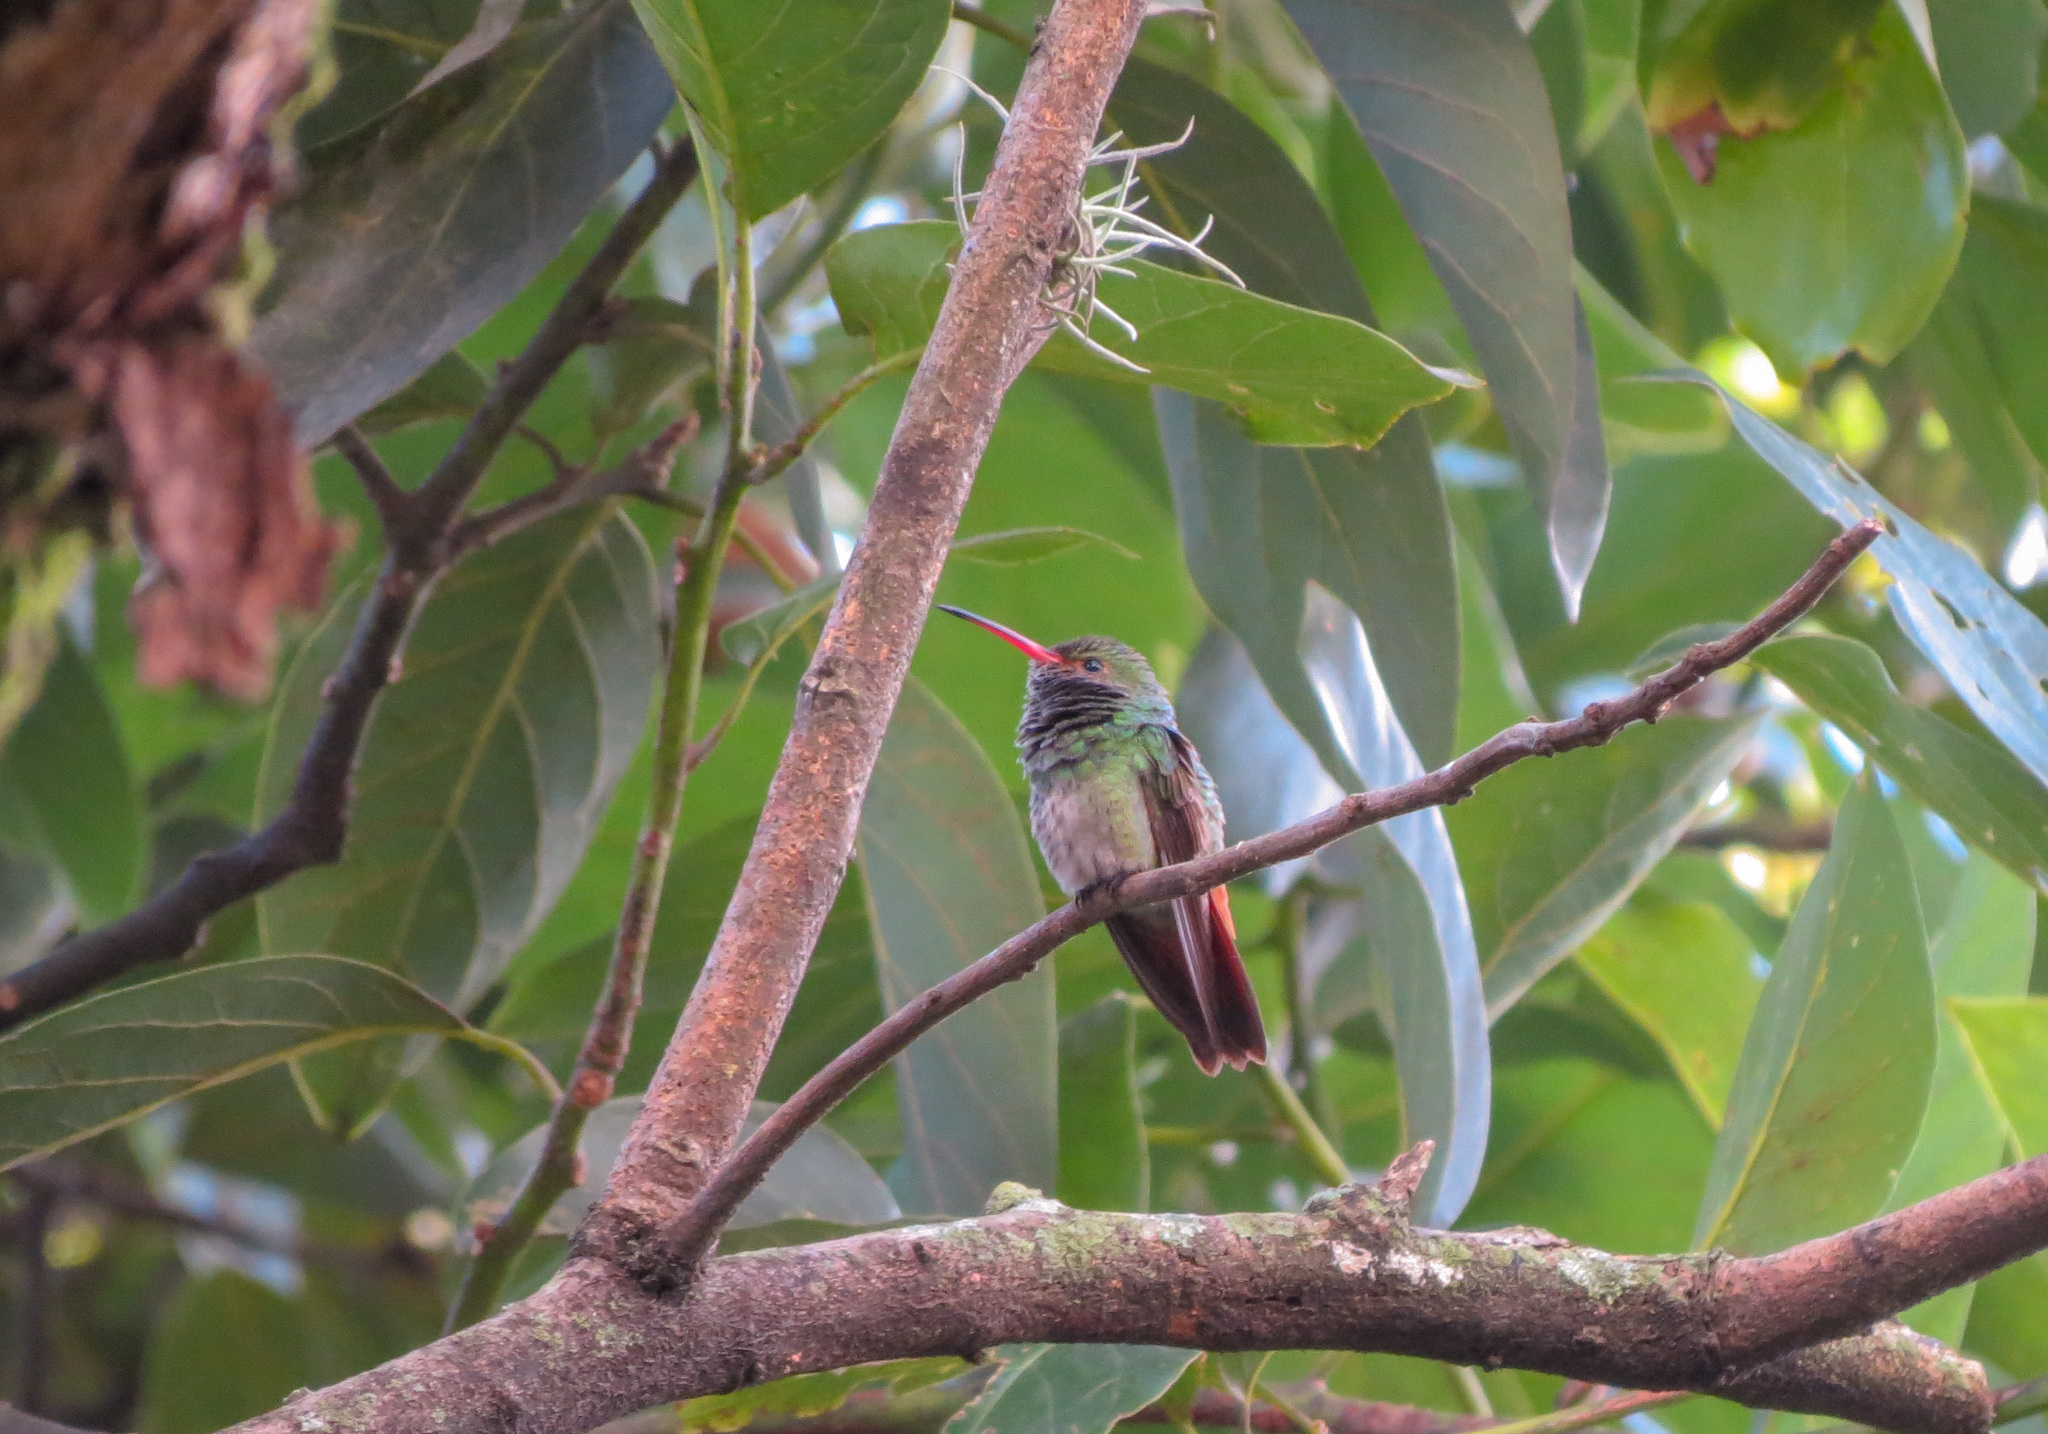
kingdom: Animalia
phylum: Chordata
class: Aves
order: Apodiformes
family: Trochilidae
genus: Amazilia
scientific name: Amazilia tzacatl
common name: Rufous-tailed hummingbird
